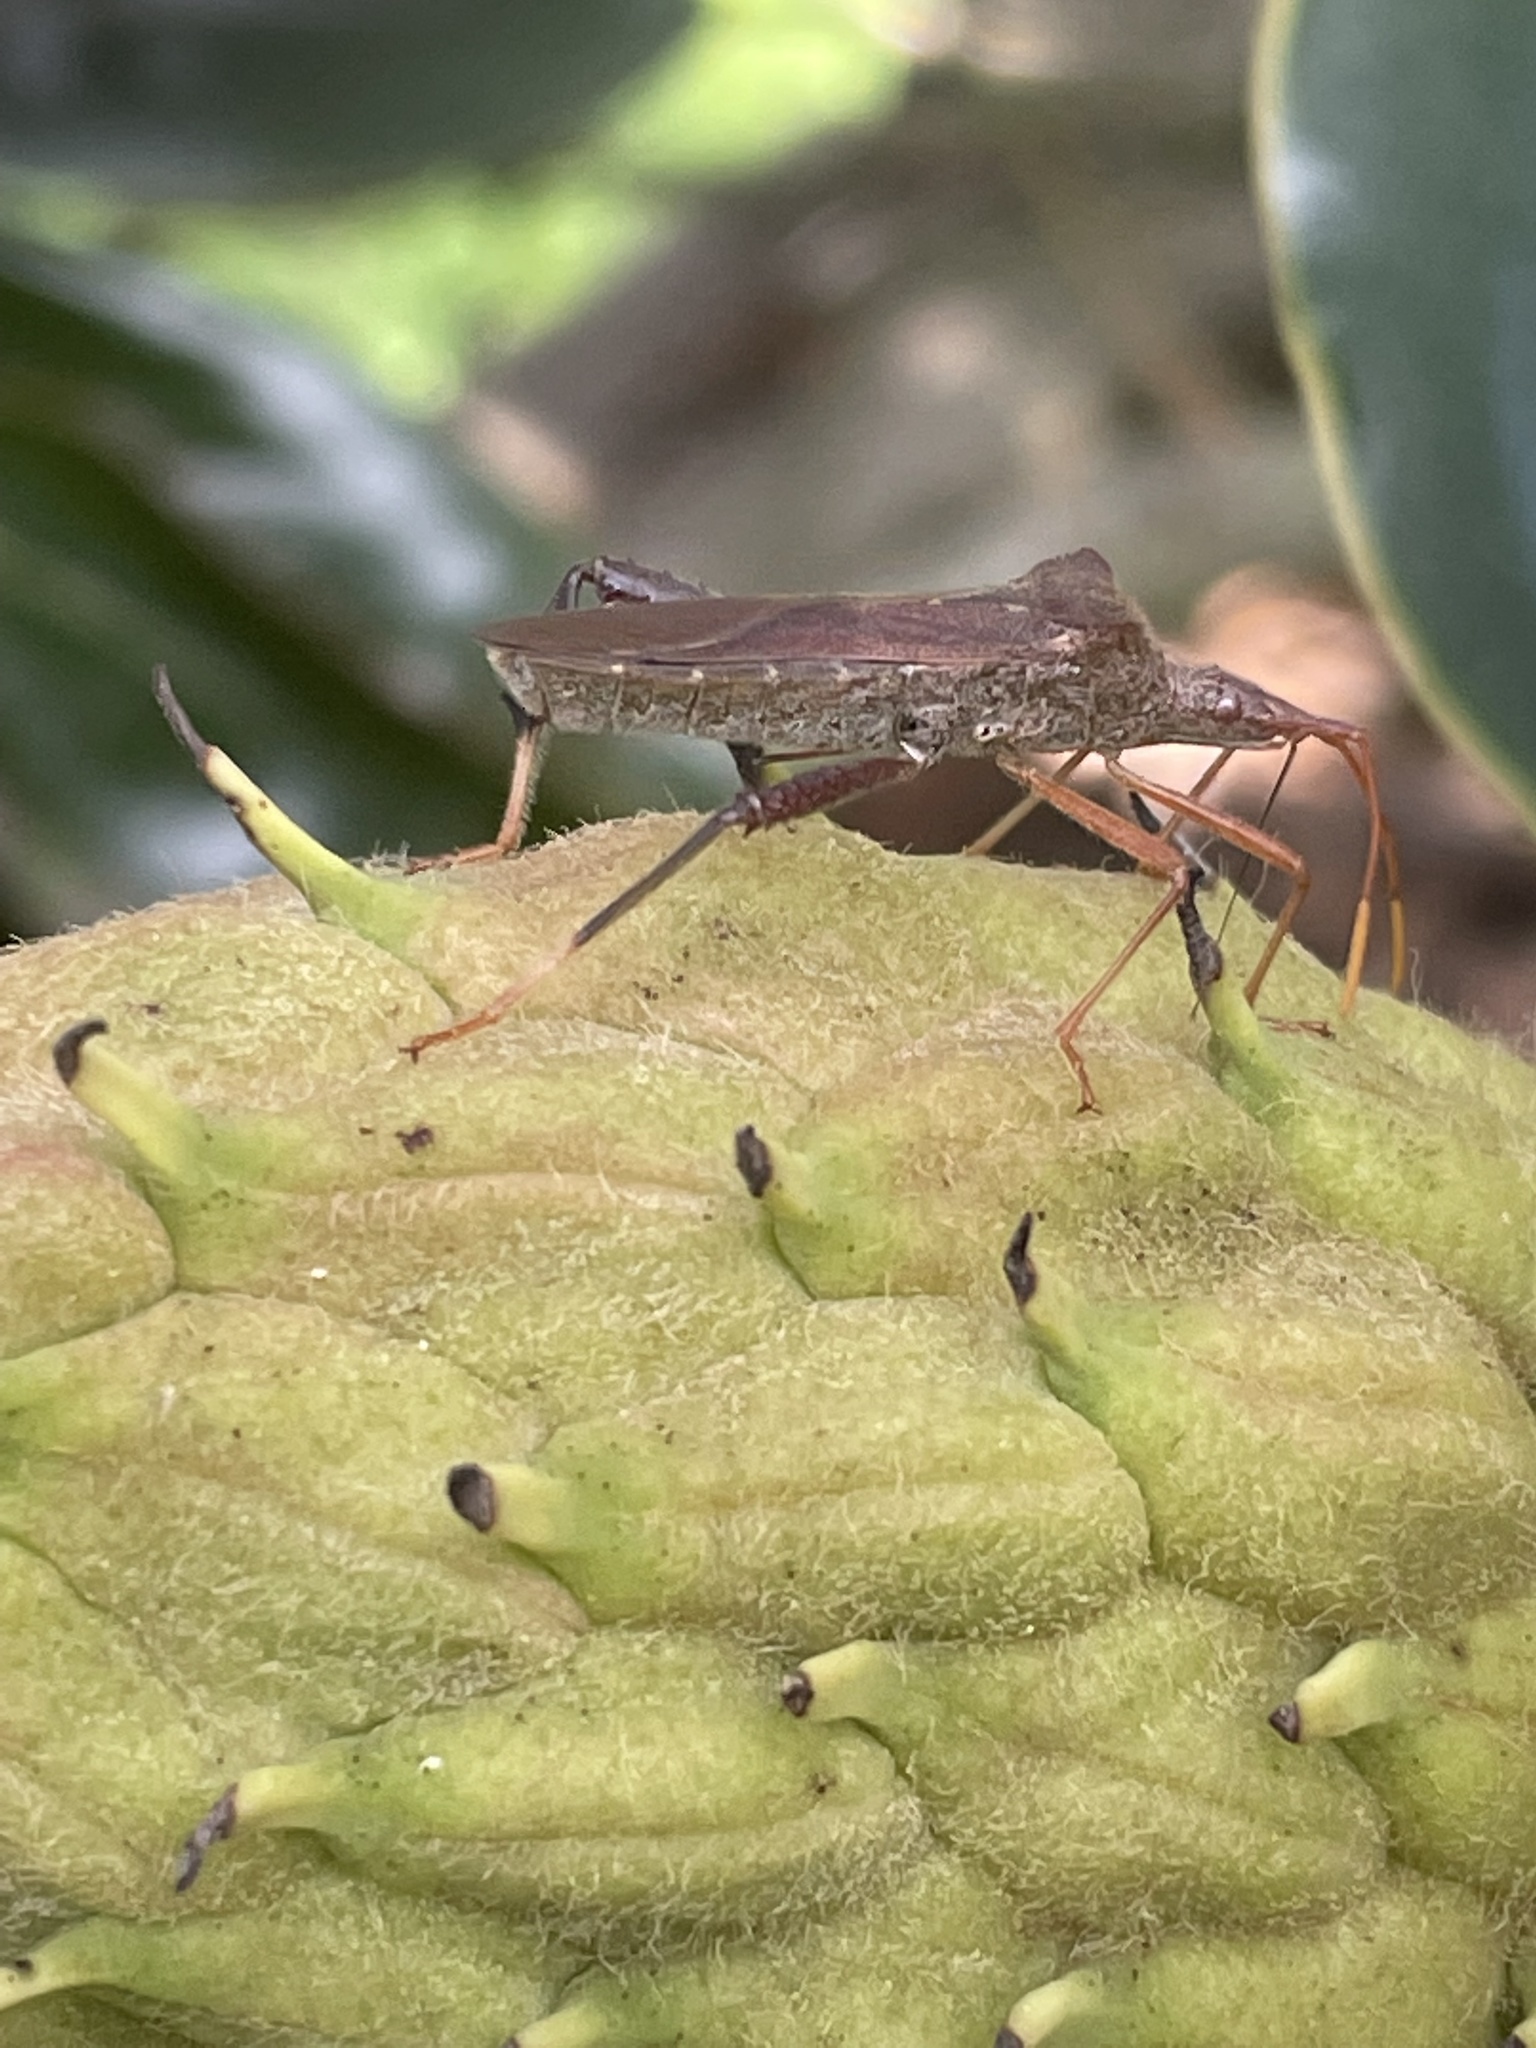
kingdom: Animalia
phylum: Arthropoda
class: Insecta
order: Hemiptera
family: Coreidae
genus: Leptoglossus
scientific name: Leptoglossus fulvicornis
